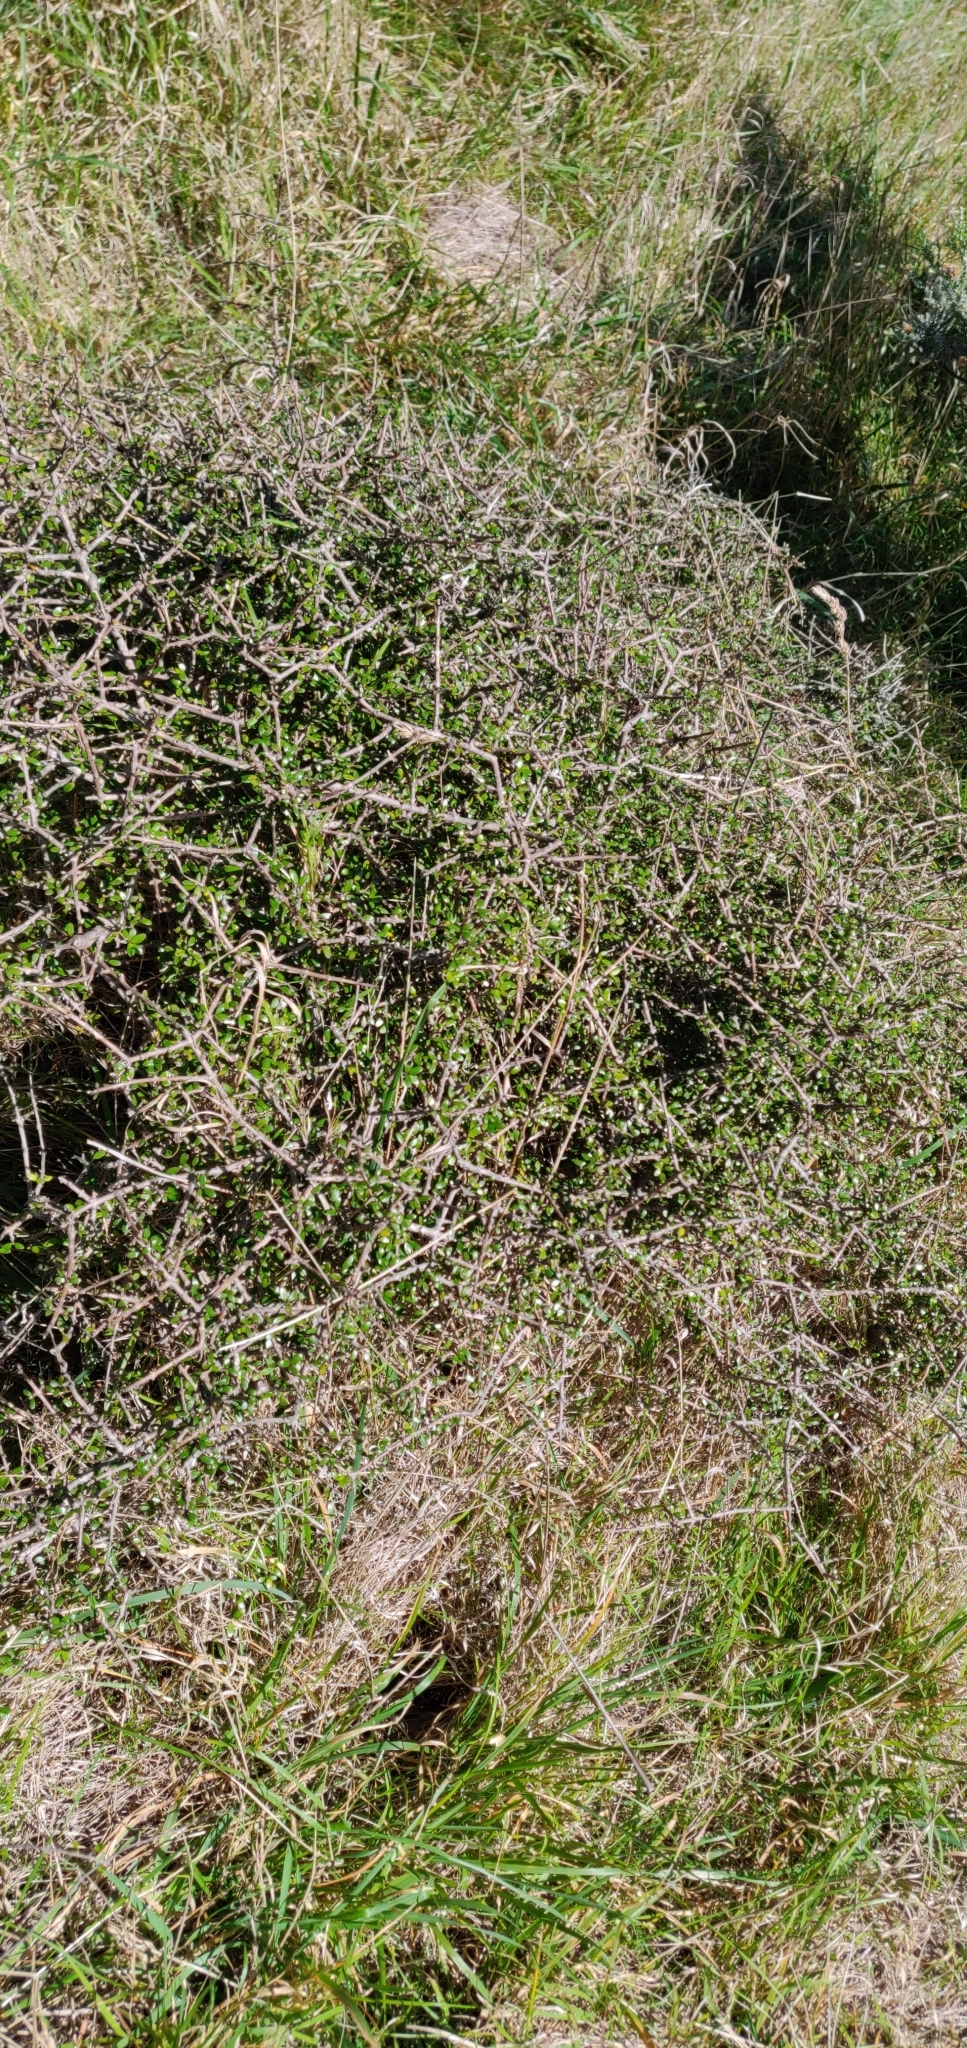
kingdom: Plantae
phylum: Tracheophyta
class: Magnoliopsida
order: Gentianales
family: Rubiaceae
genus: Coprosma
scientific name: Coprosma propinqua
